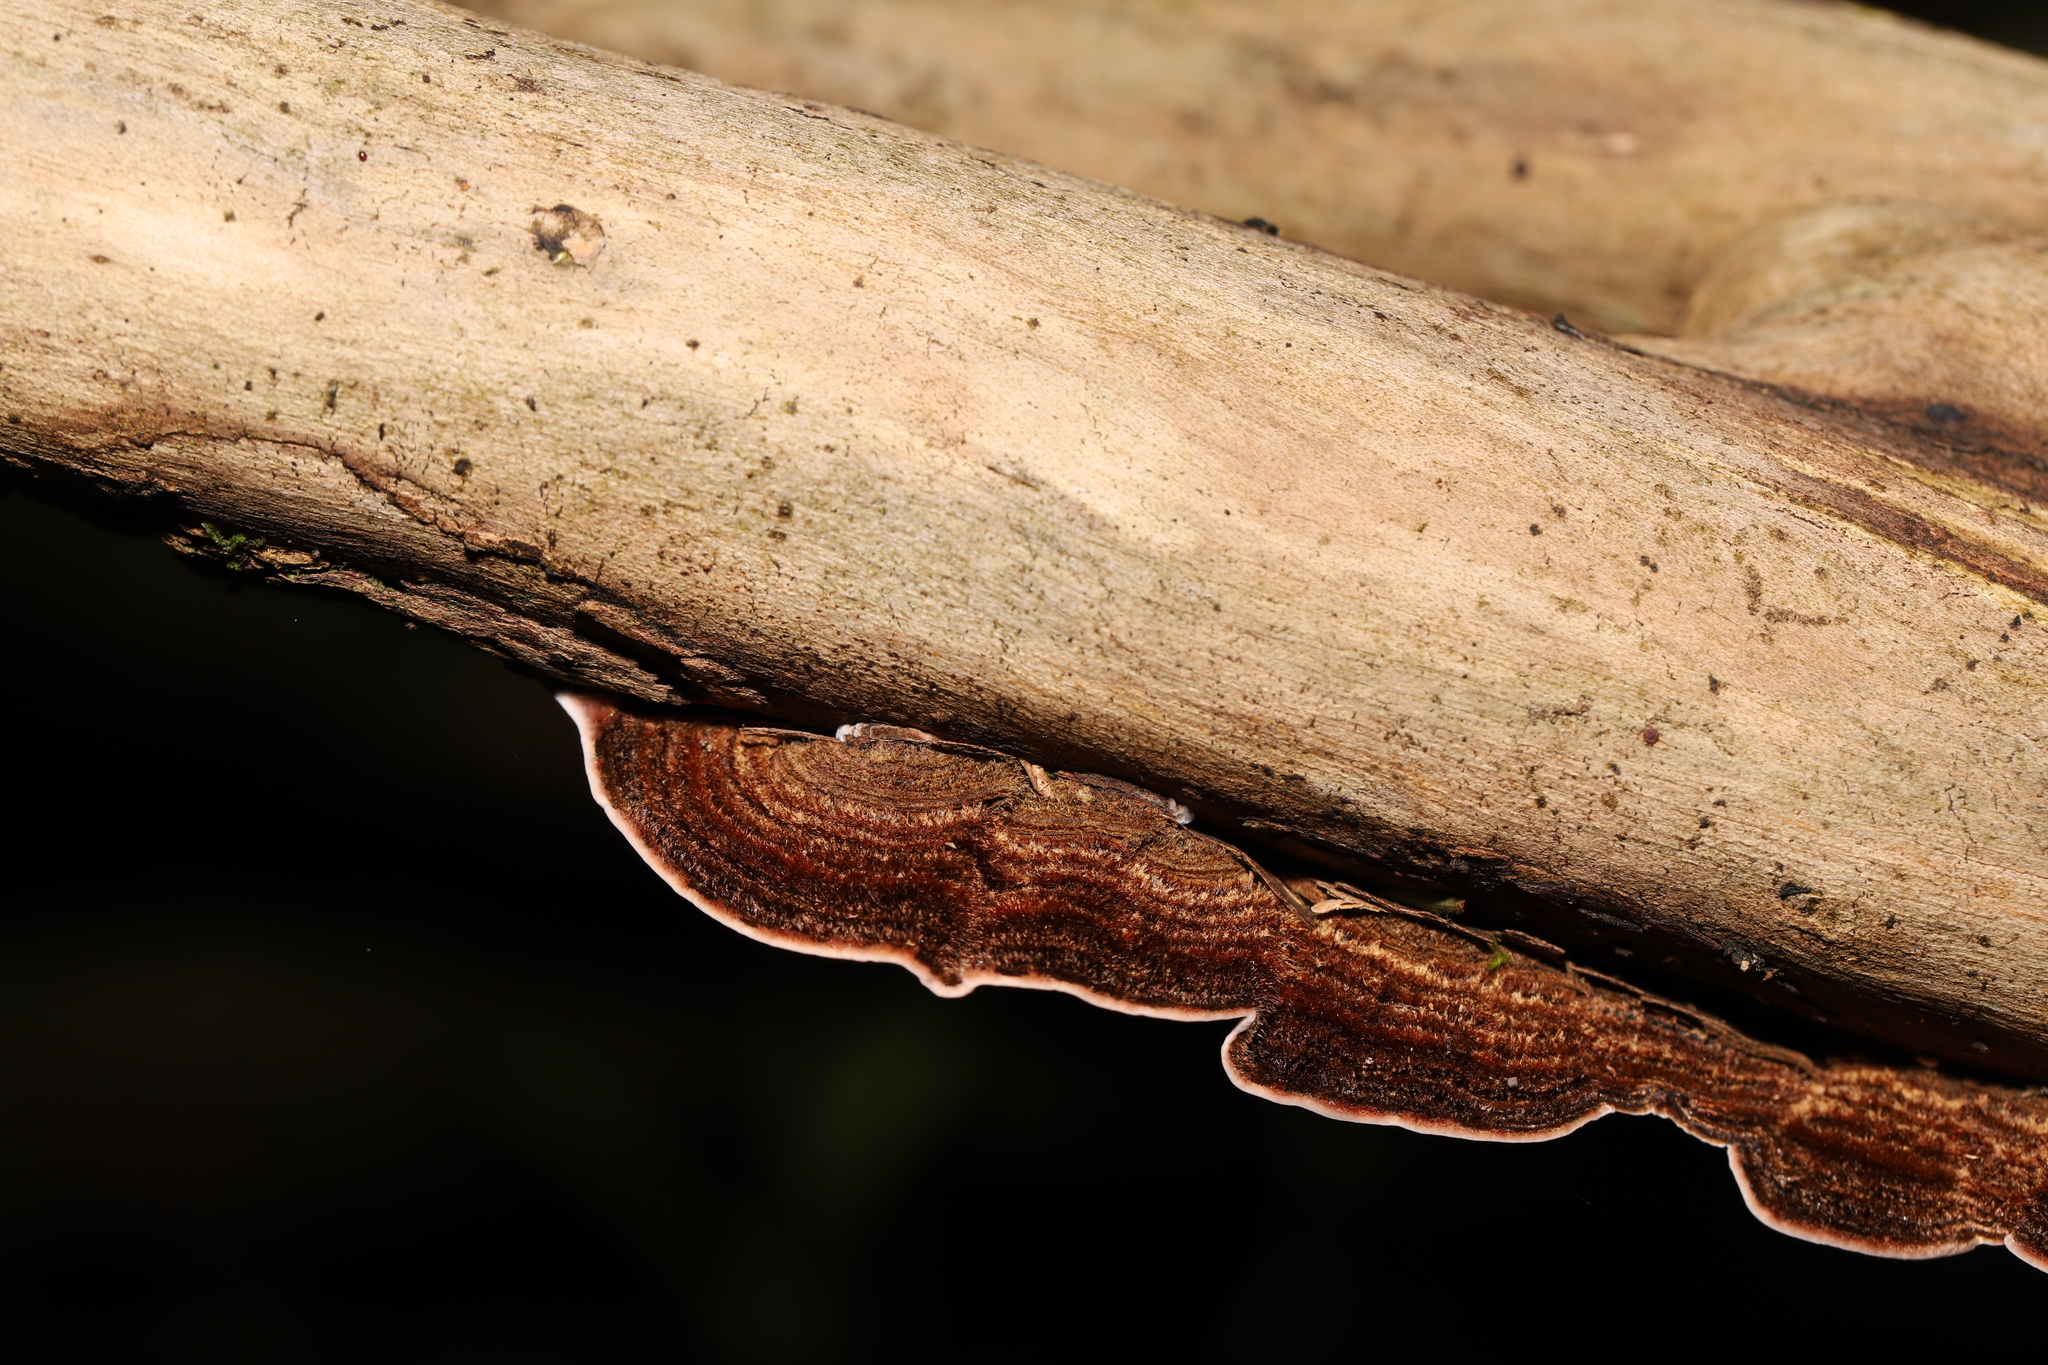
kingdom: Fungi
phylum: Basidiomycota
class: Agaricomycetes
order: Russulales
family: Stereaceae
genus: Xylobolus
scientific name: Xylobolus illudens
